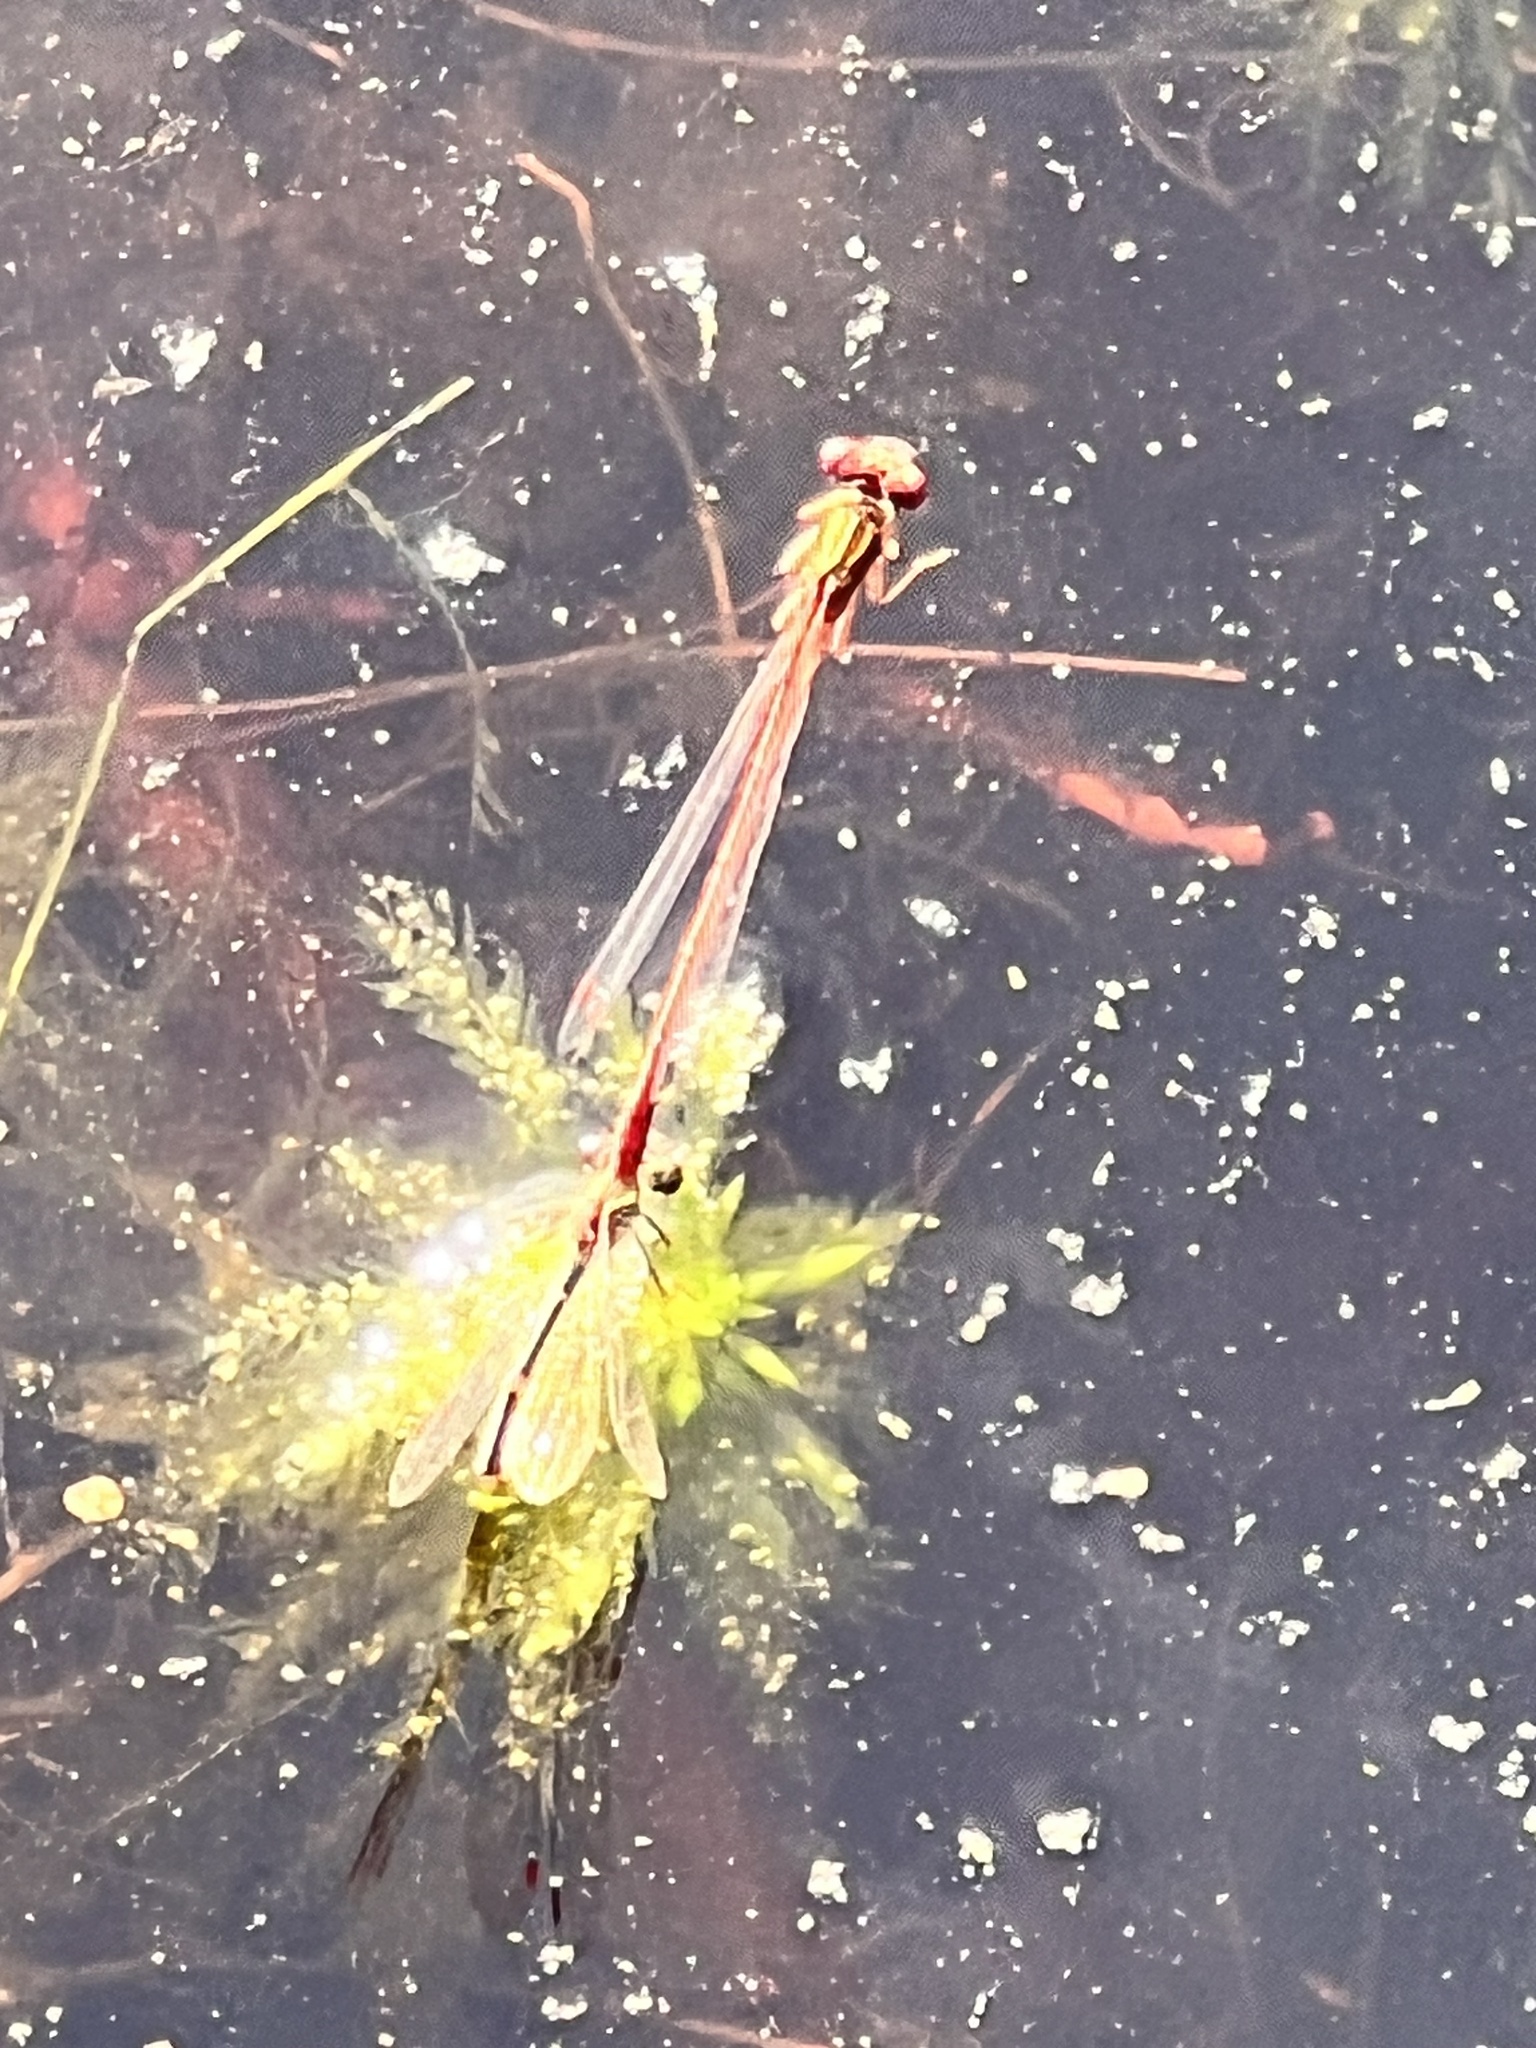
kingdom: Animalia
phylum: Arthropoda
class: Insecta
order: Odonata
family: Coenagrionidae
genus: Xanthocnemis
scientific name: Xanthocnemis zealandica
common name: Common redcoat damselfly
